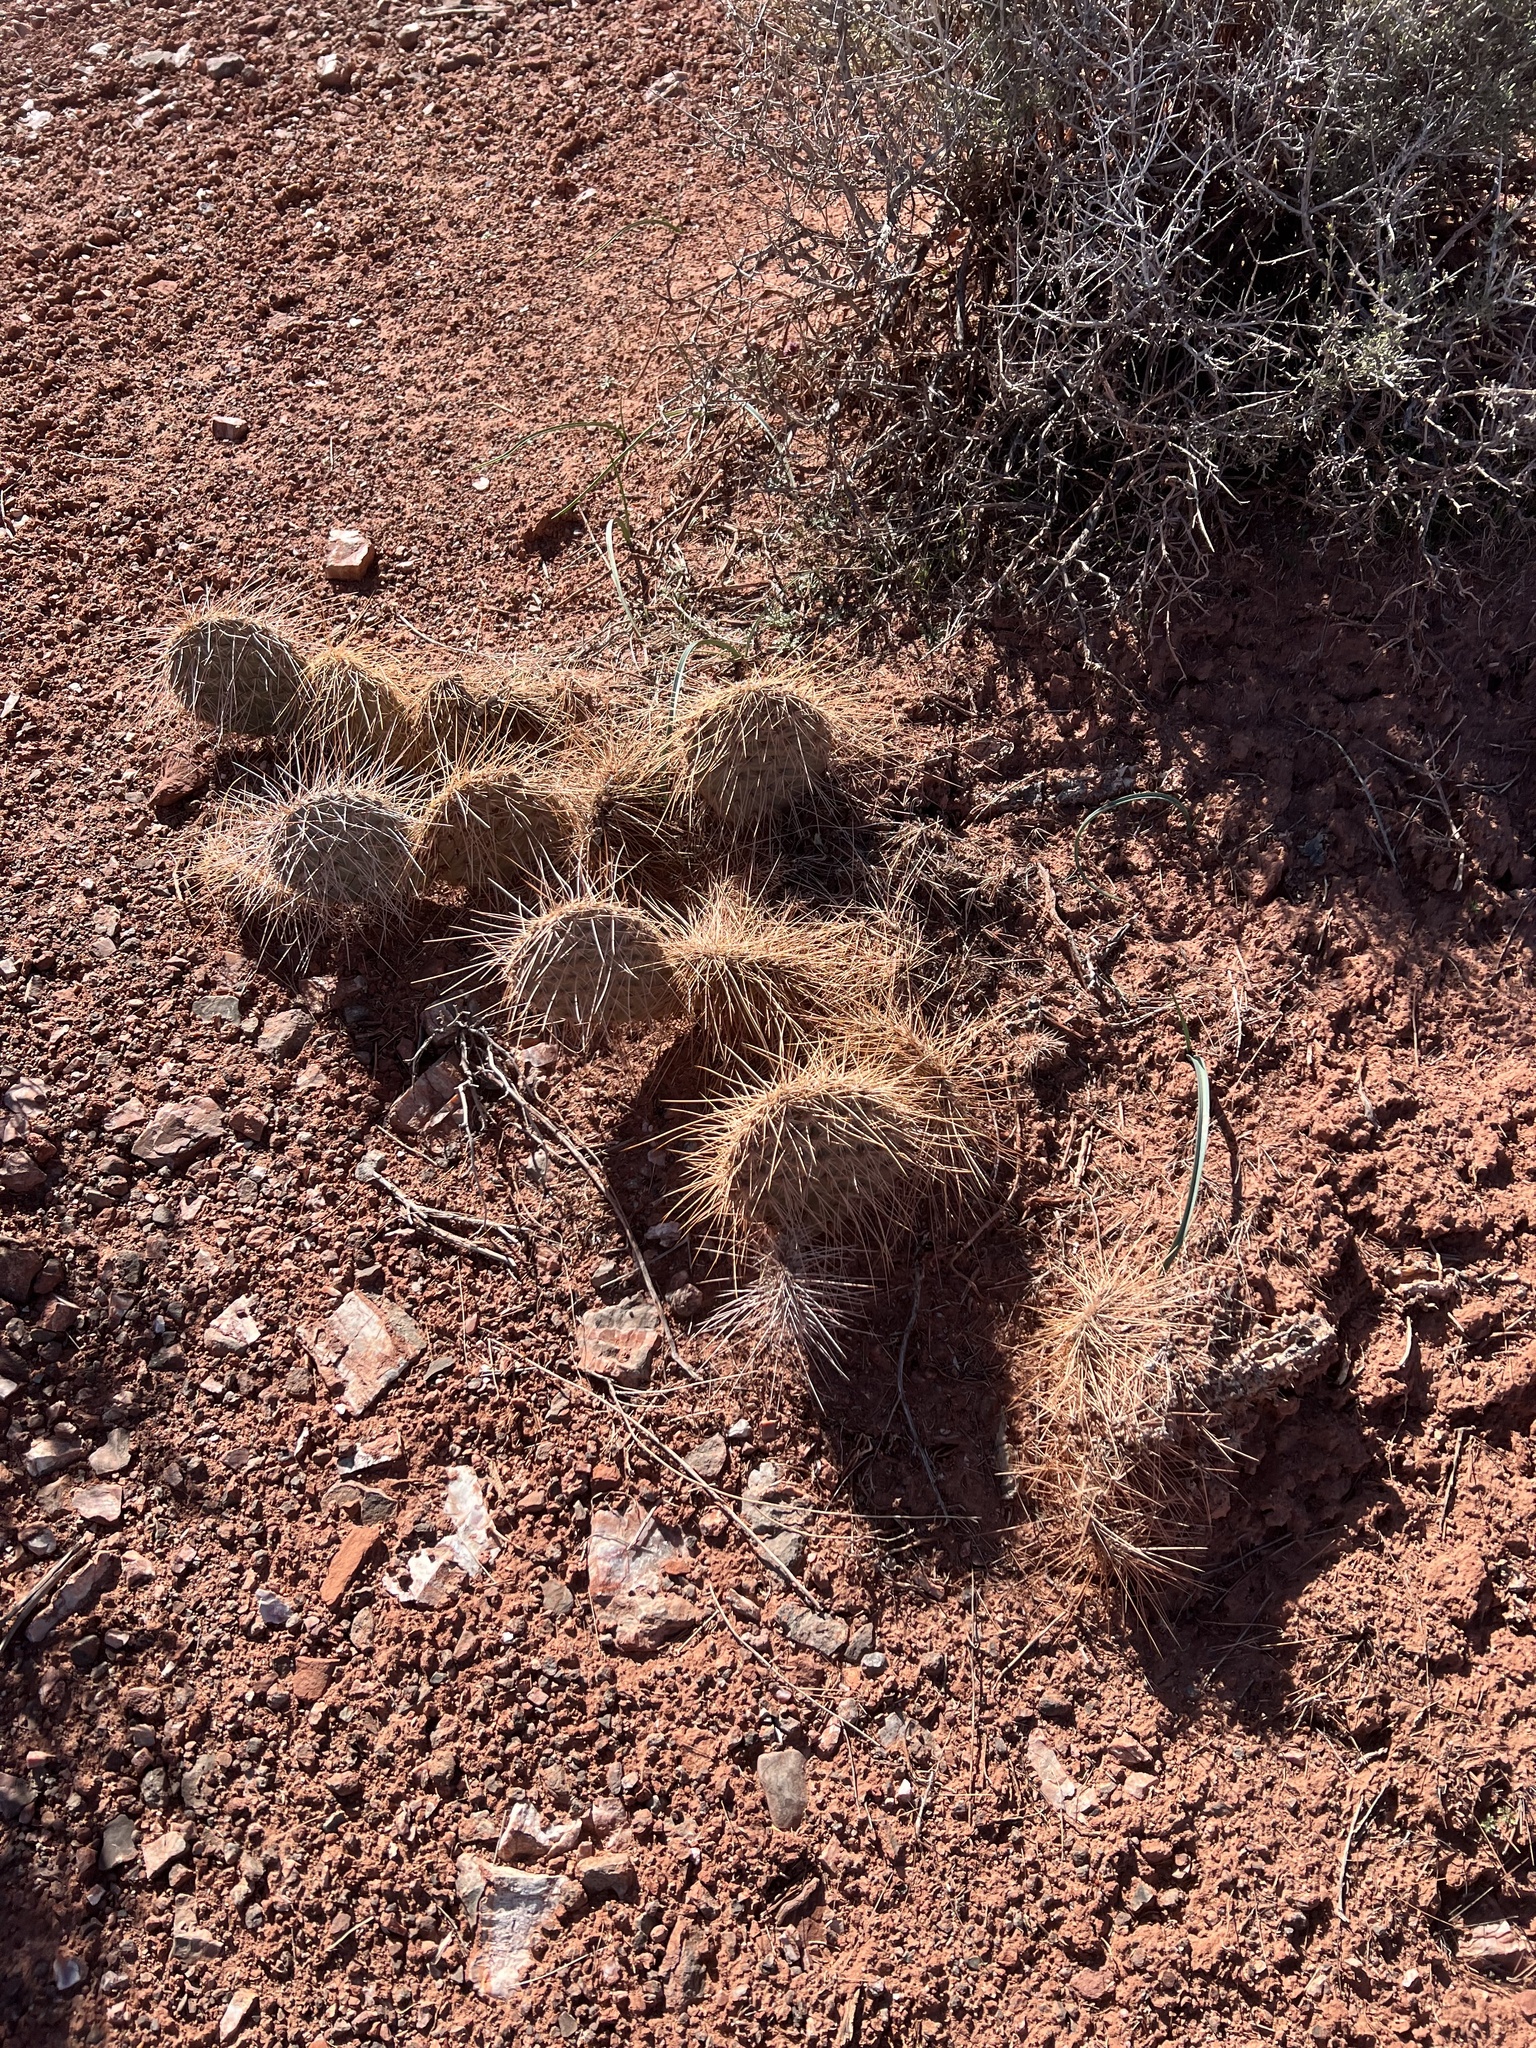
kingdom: Plantae
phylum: Tracheophyta
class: Magnoliopsida
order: Caryophyllales
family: Cactaceae
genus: Opuntia
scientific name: Opuntia polyacantha
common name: Plains prickly-pear
